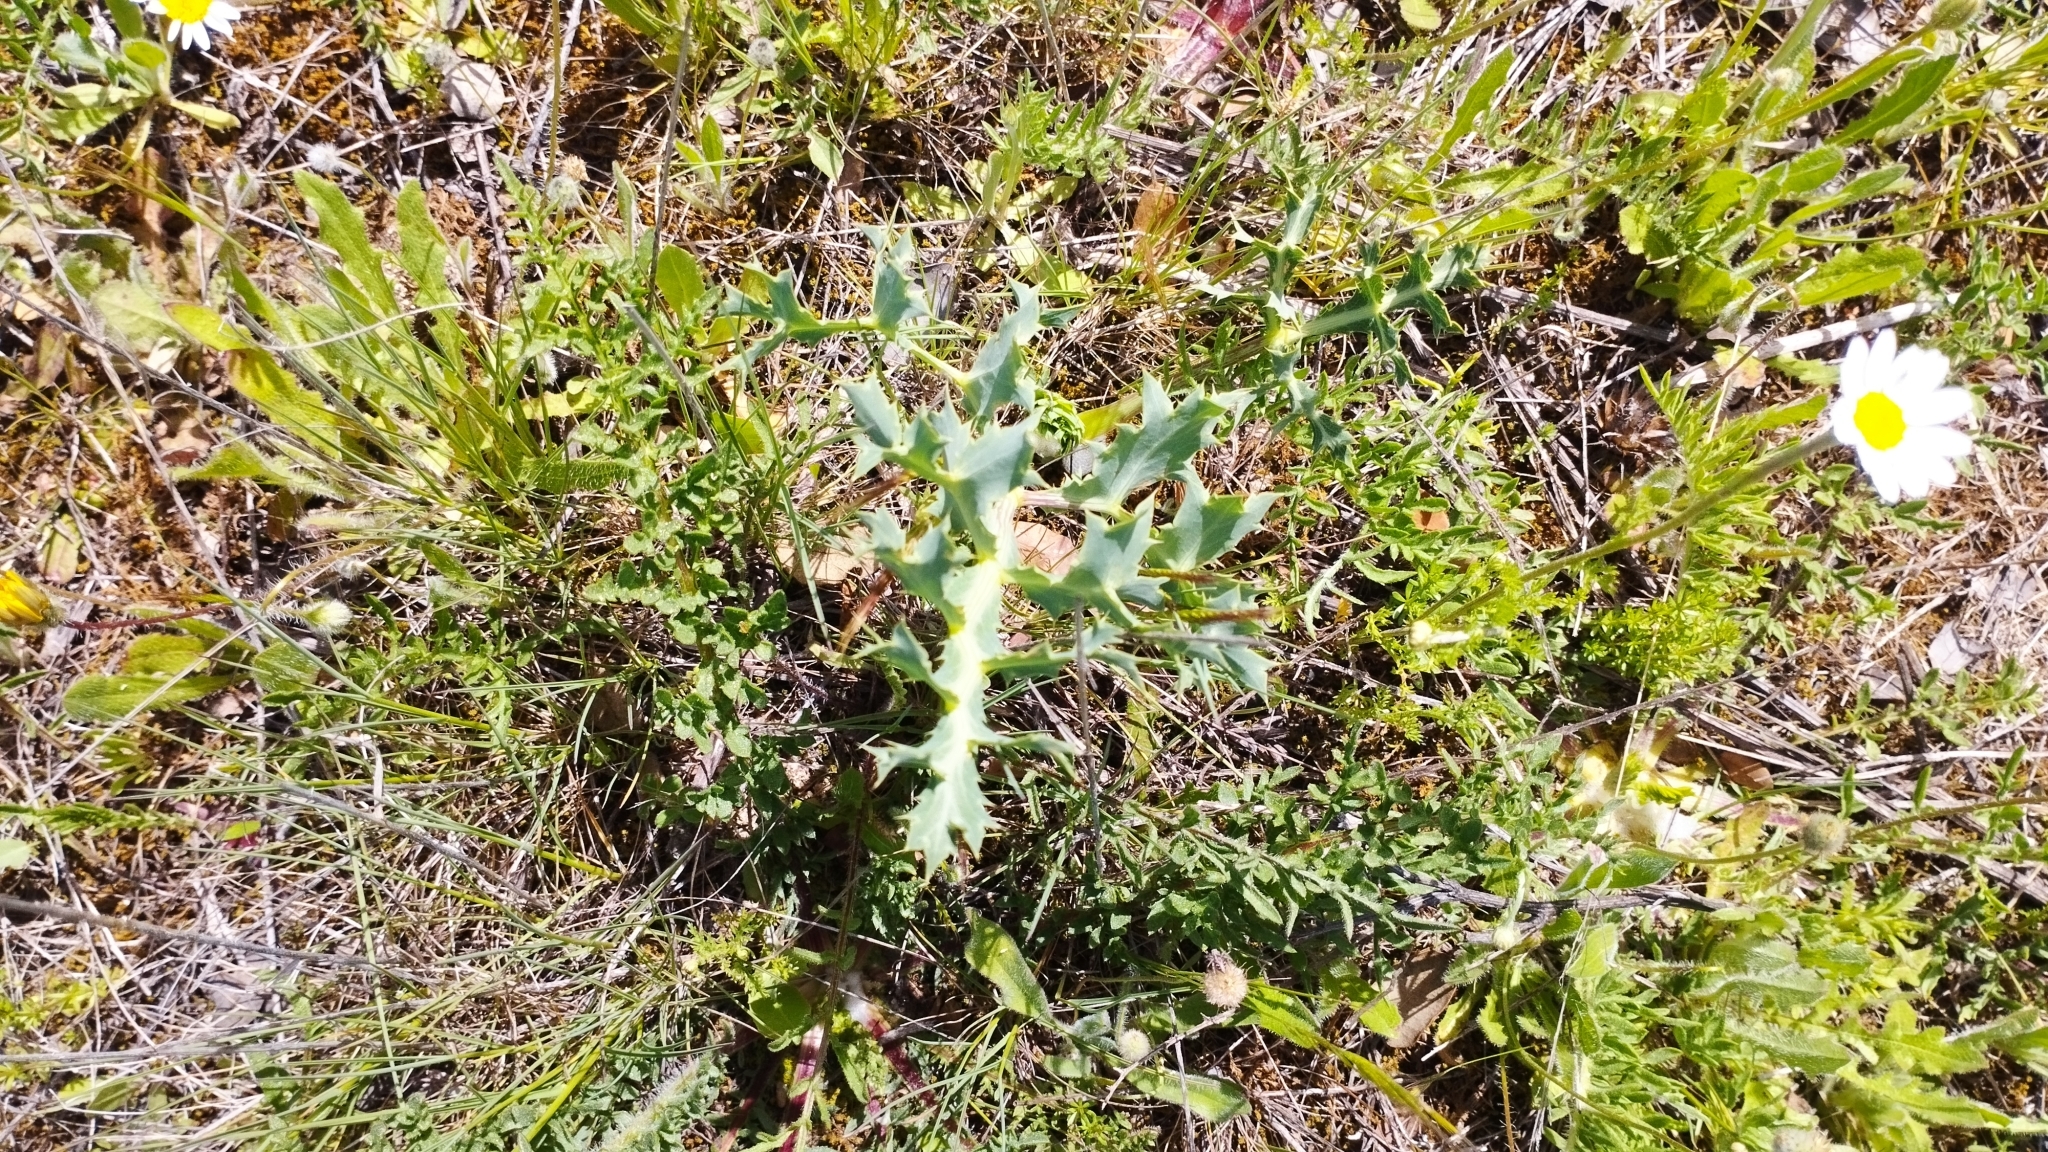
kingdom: Plantae
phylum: Tracheophyta
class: Magnoliopsida
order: Apiales
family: Apiaceae
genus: Eryngium
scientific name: Eryngium campestre
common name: Field eryngo
